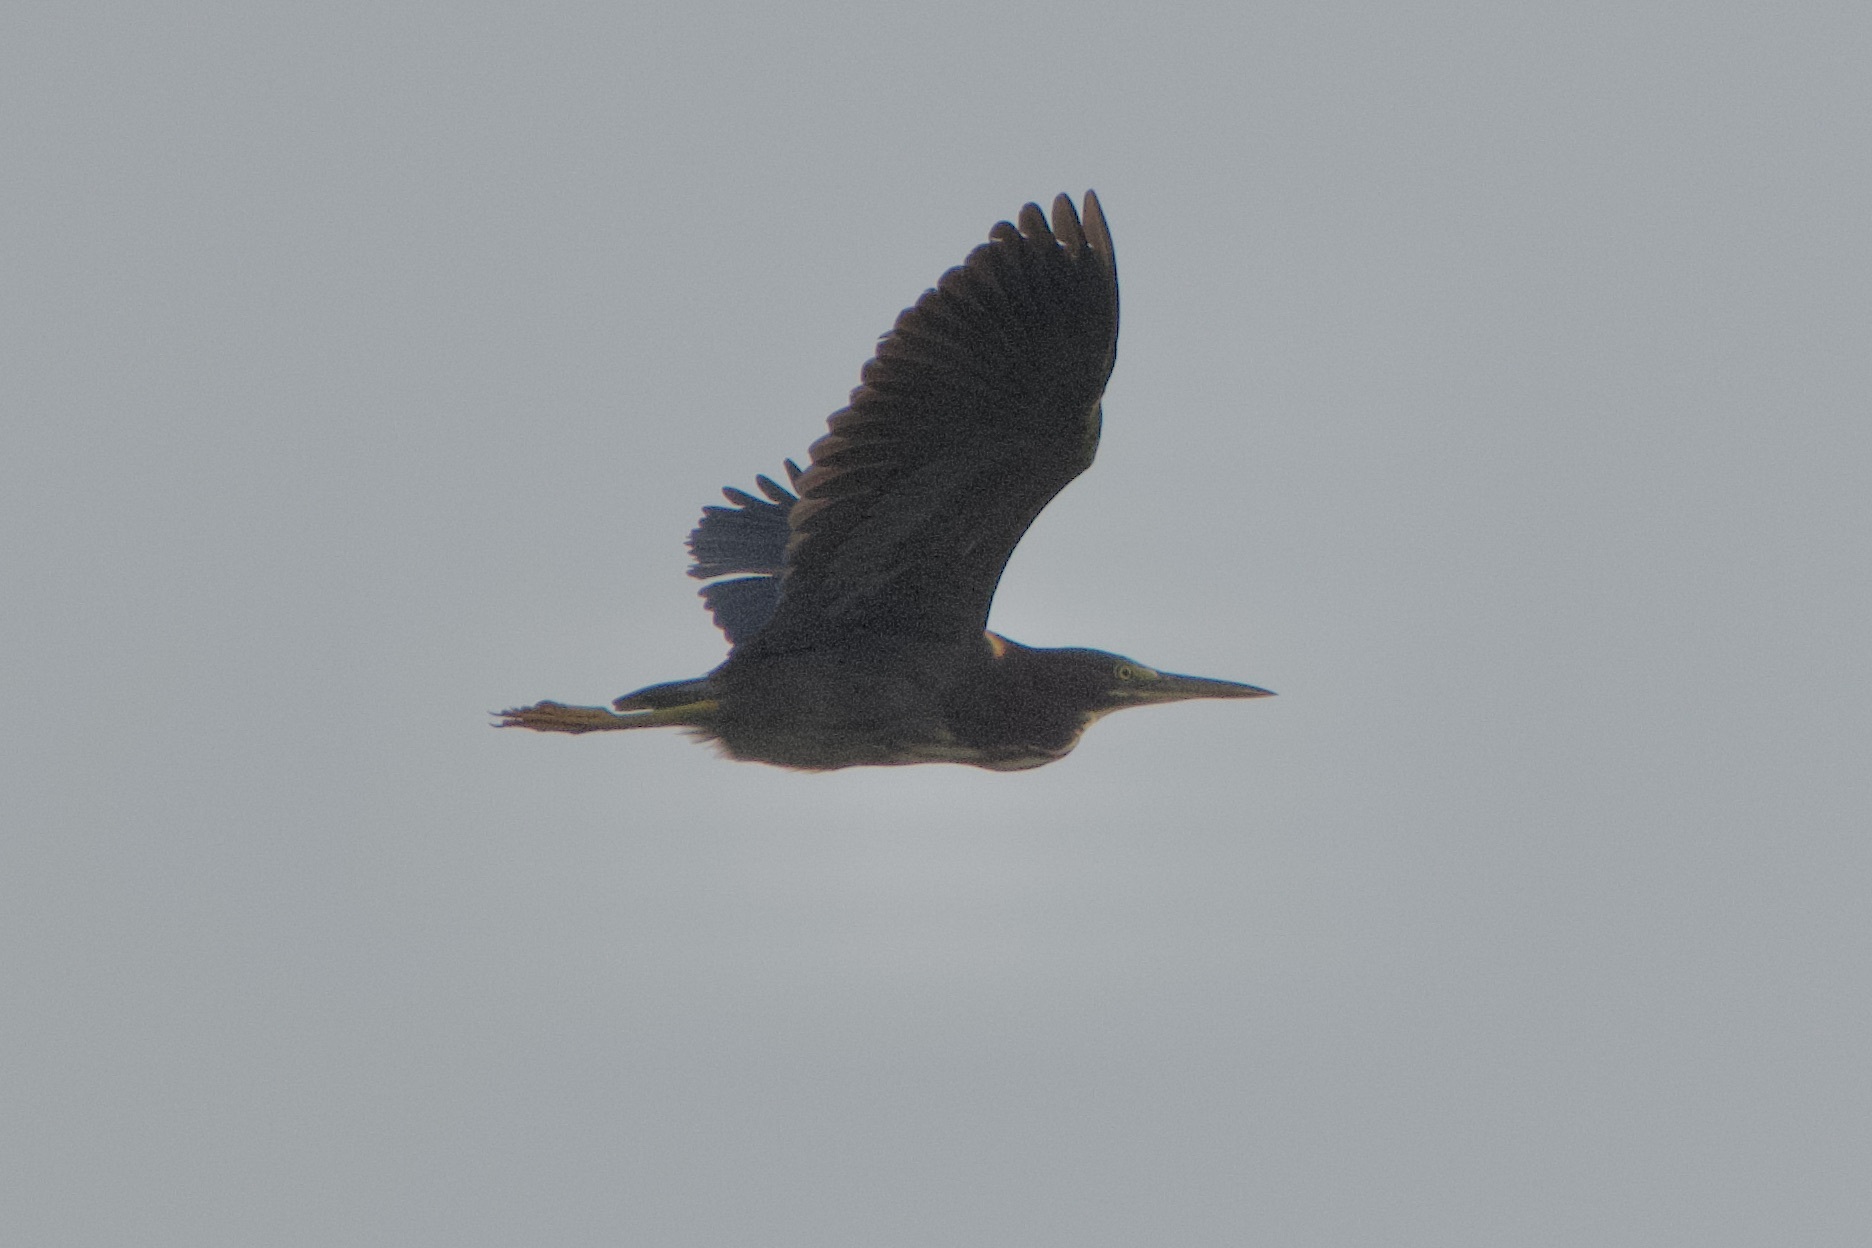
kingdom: Animalia
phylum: Chordata
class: Aves
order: Pelecaniformes
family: Ardeidae
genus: Butorides
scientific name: Butorides virescens
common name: Green heron
